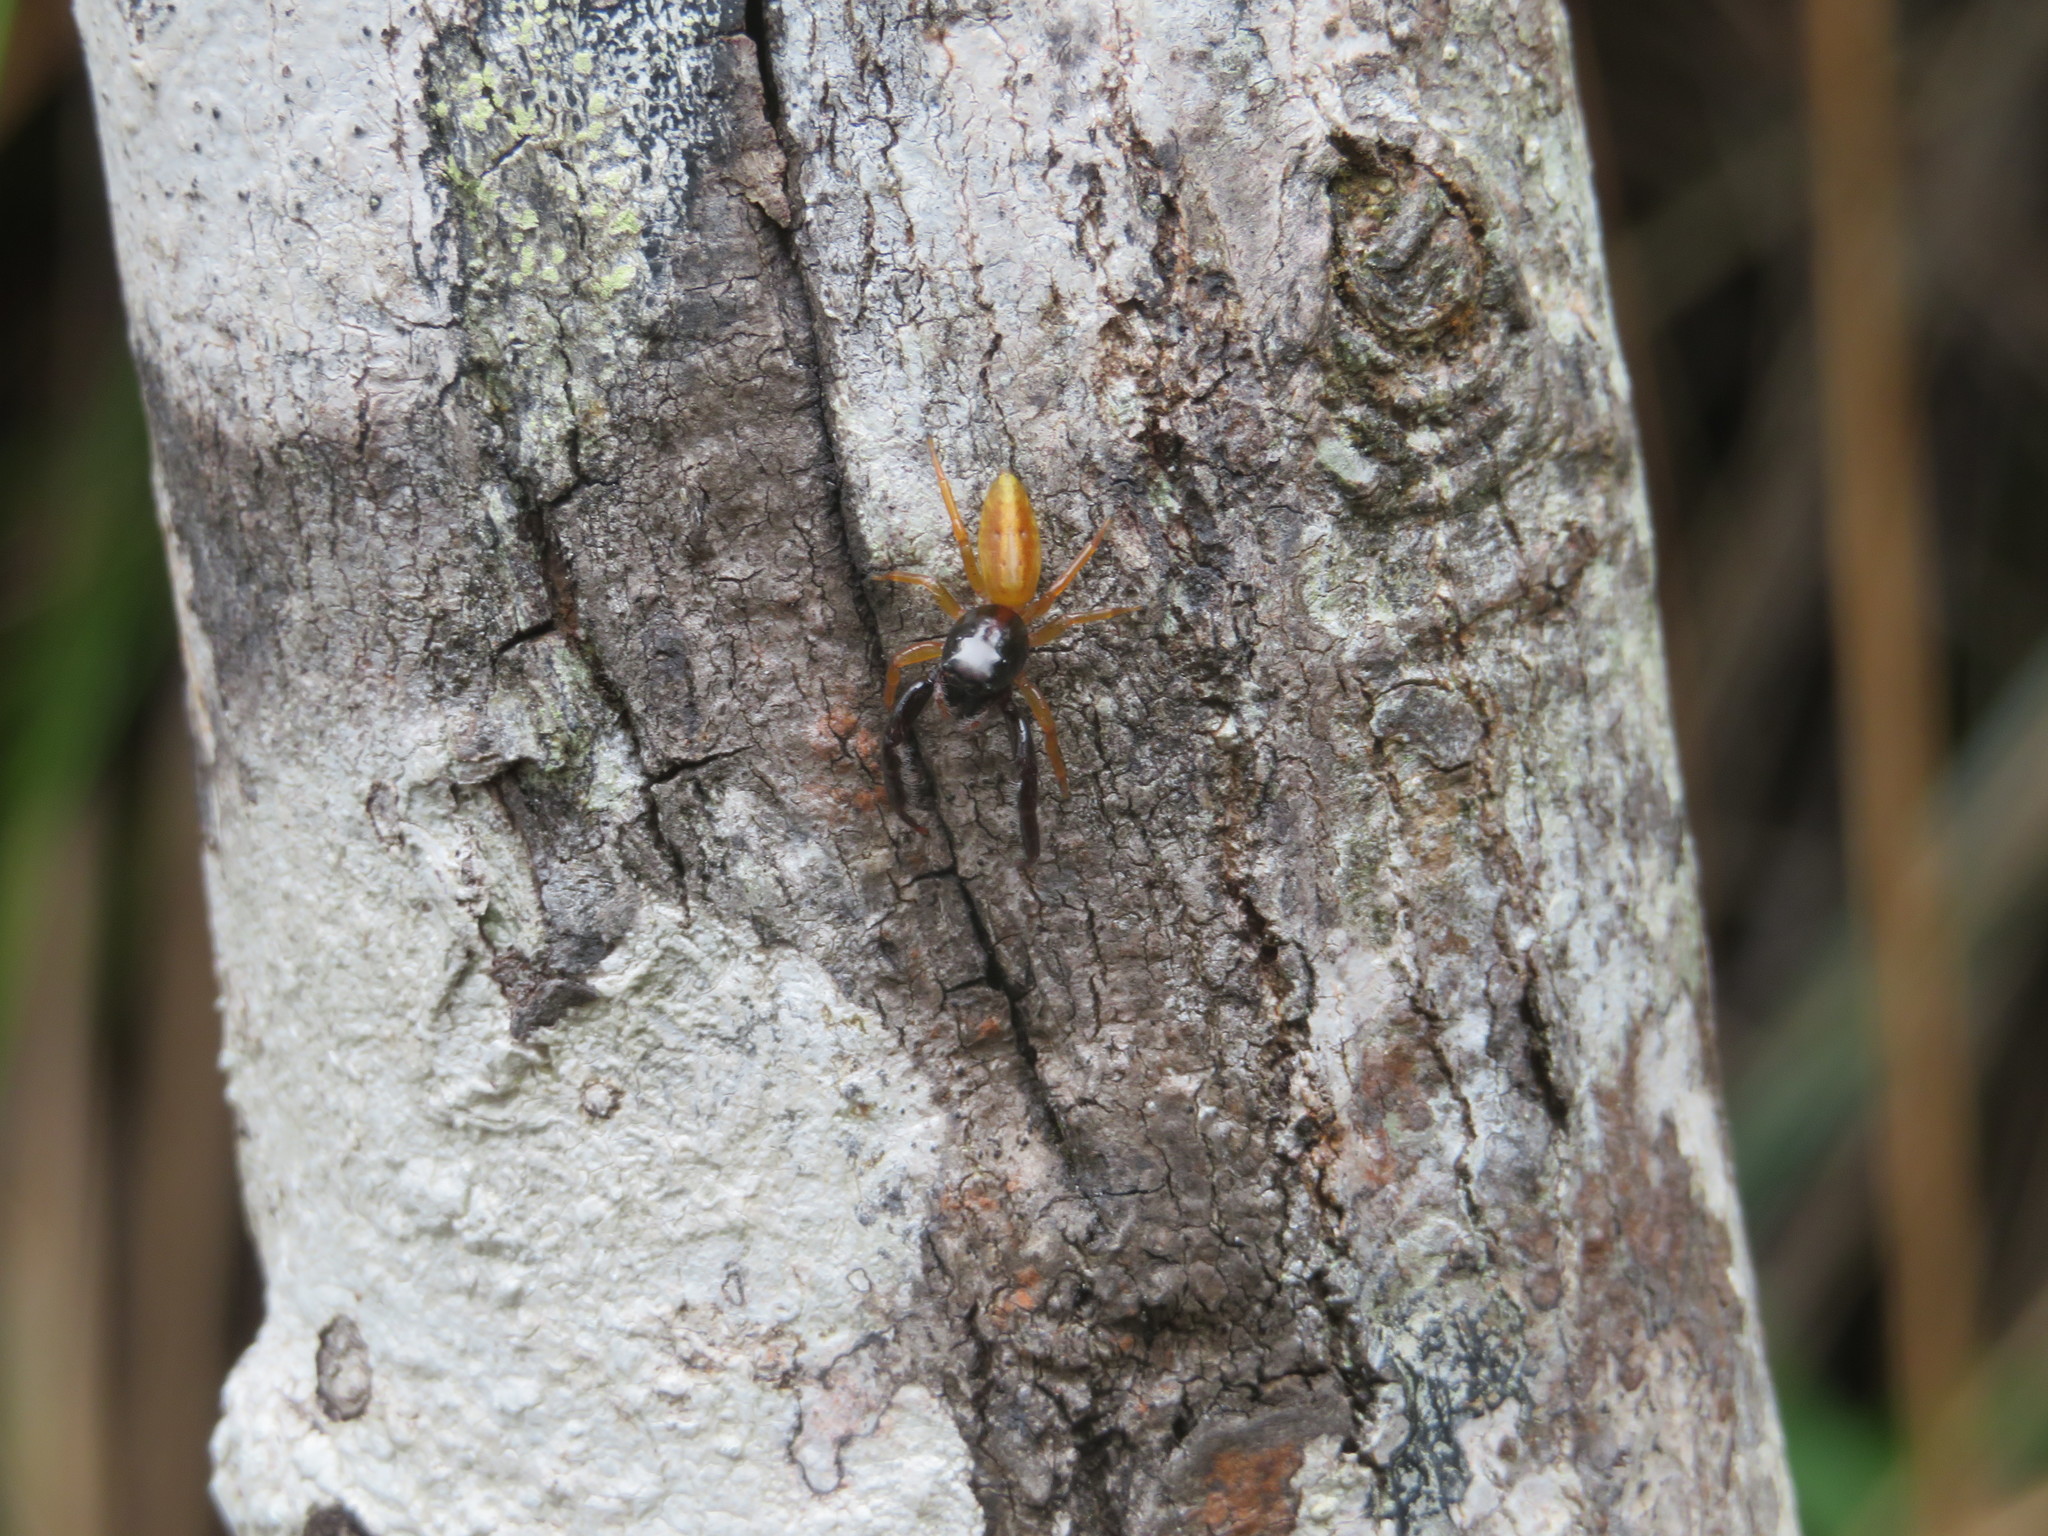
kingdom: Animalia
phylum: Arthropoda
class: Arachnida
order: Araneae
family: Salticidae
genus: Trite
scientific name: Trite planiceps
